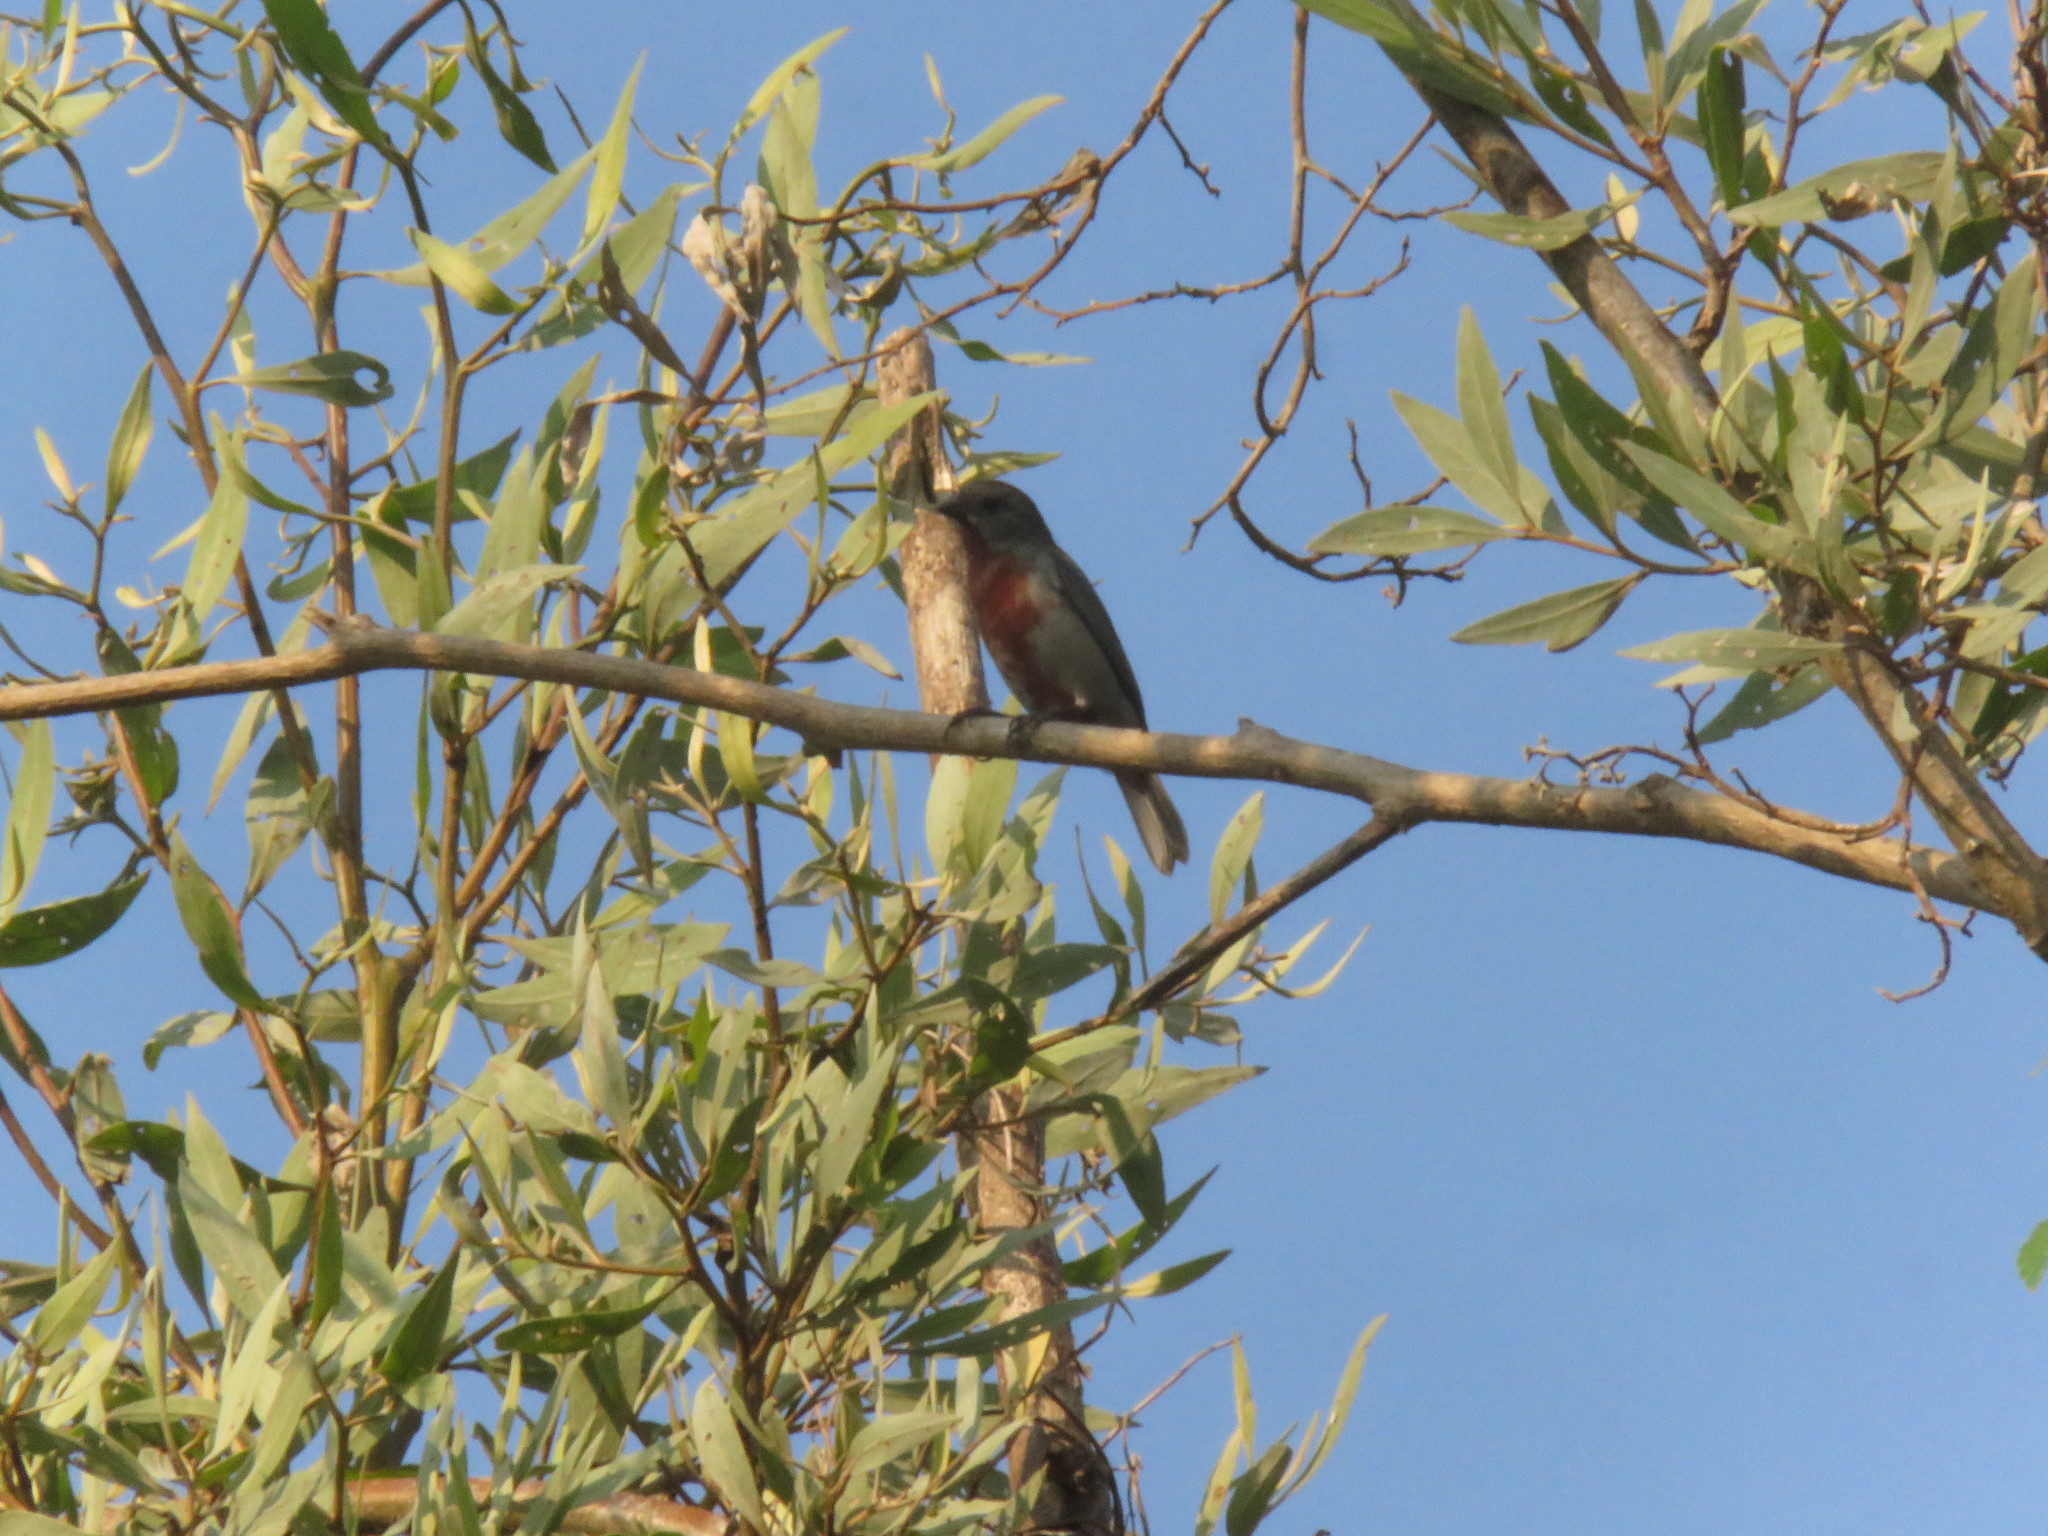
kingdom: Animalia
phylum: Chordata
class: Aves
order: Passeriformes
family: Thraupidae
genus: Sporophila
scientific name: Sporophila castaneiventris
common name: Chestnut-bellied seedeater
